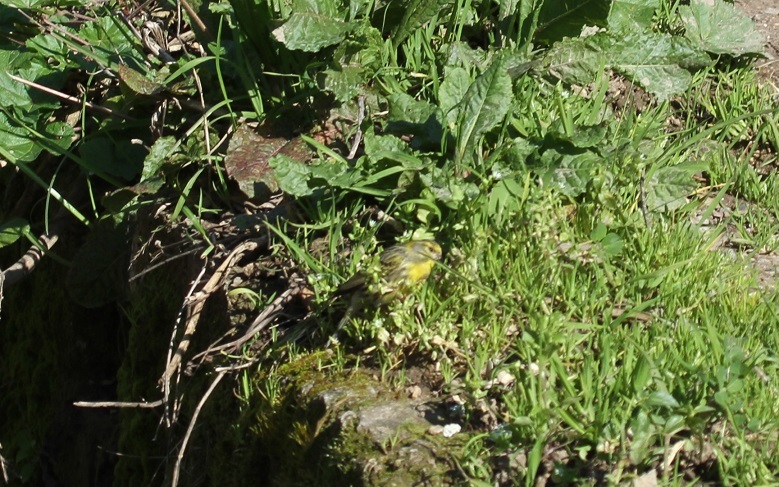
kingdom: Animalia
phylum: Chordata
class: Aves
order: Passeriformes
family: Fringillidae
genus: Serinus
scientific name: Serinus serinus
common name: European serin
